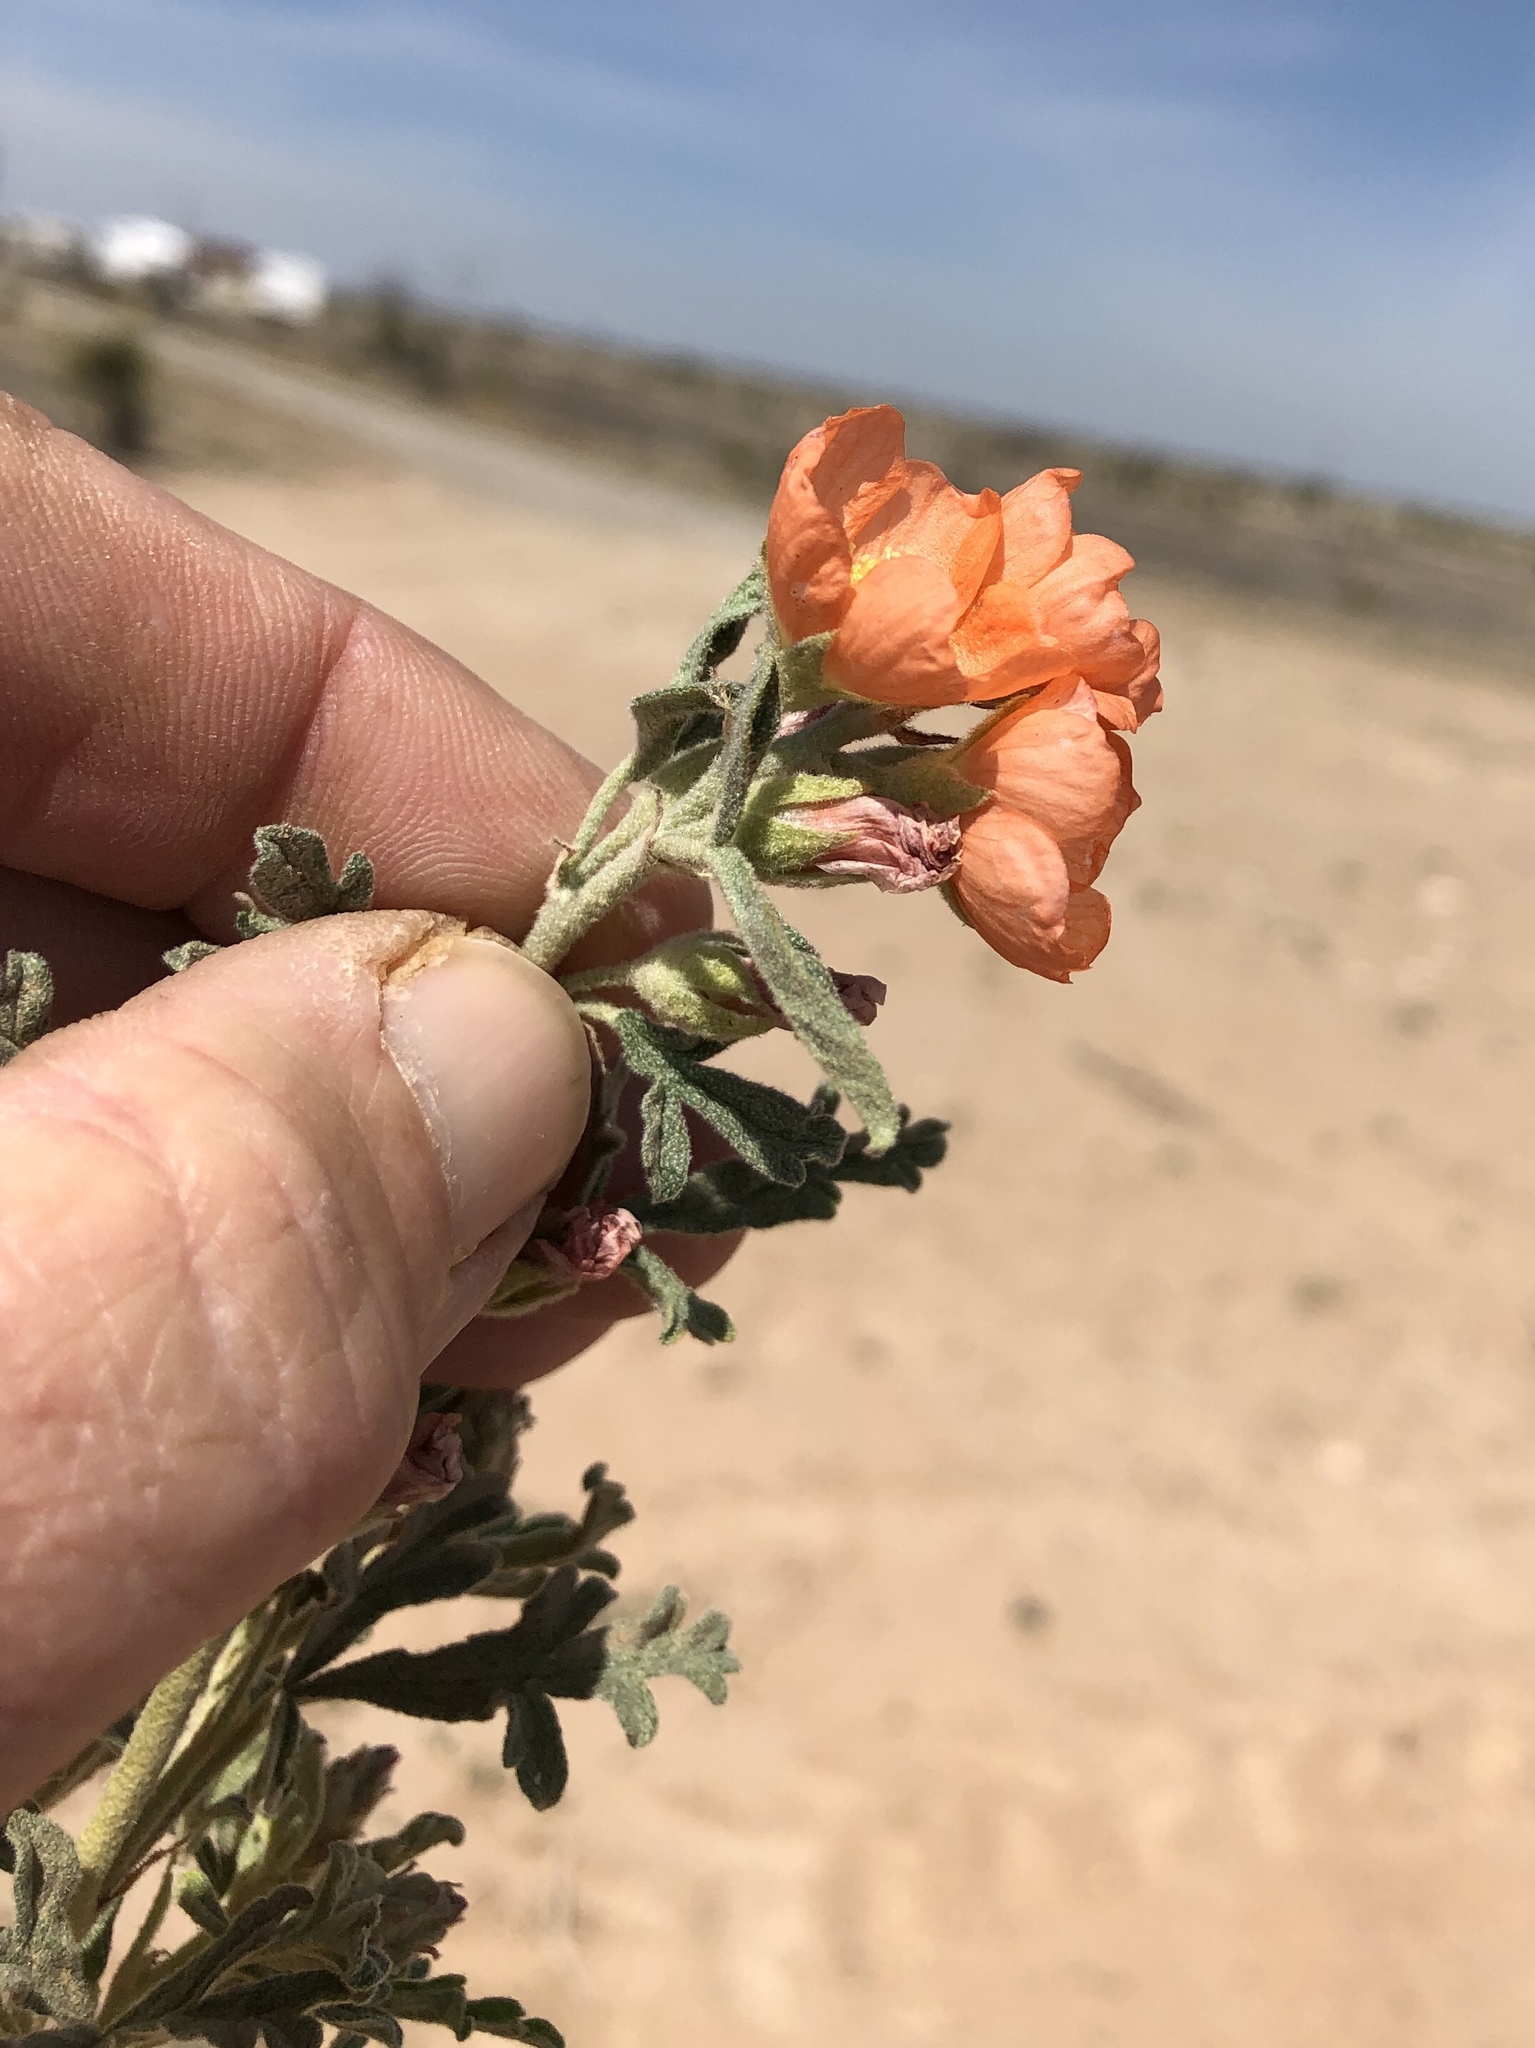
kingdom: Plantae
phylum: Tracheophyta
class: Magnoliopsida
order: Malvales
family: Malvaceae
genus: Sphaeralcea
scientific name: Sphaeralcea coccinea
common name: Moss-rose
